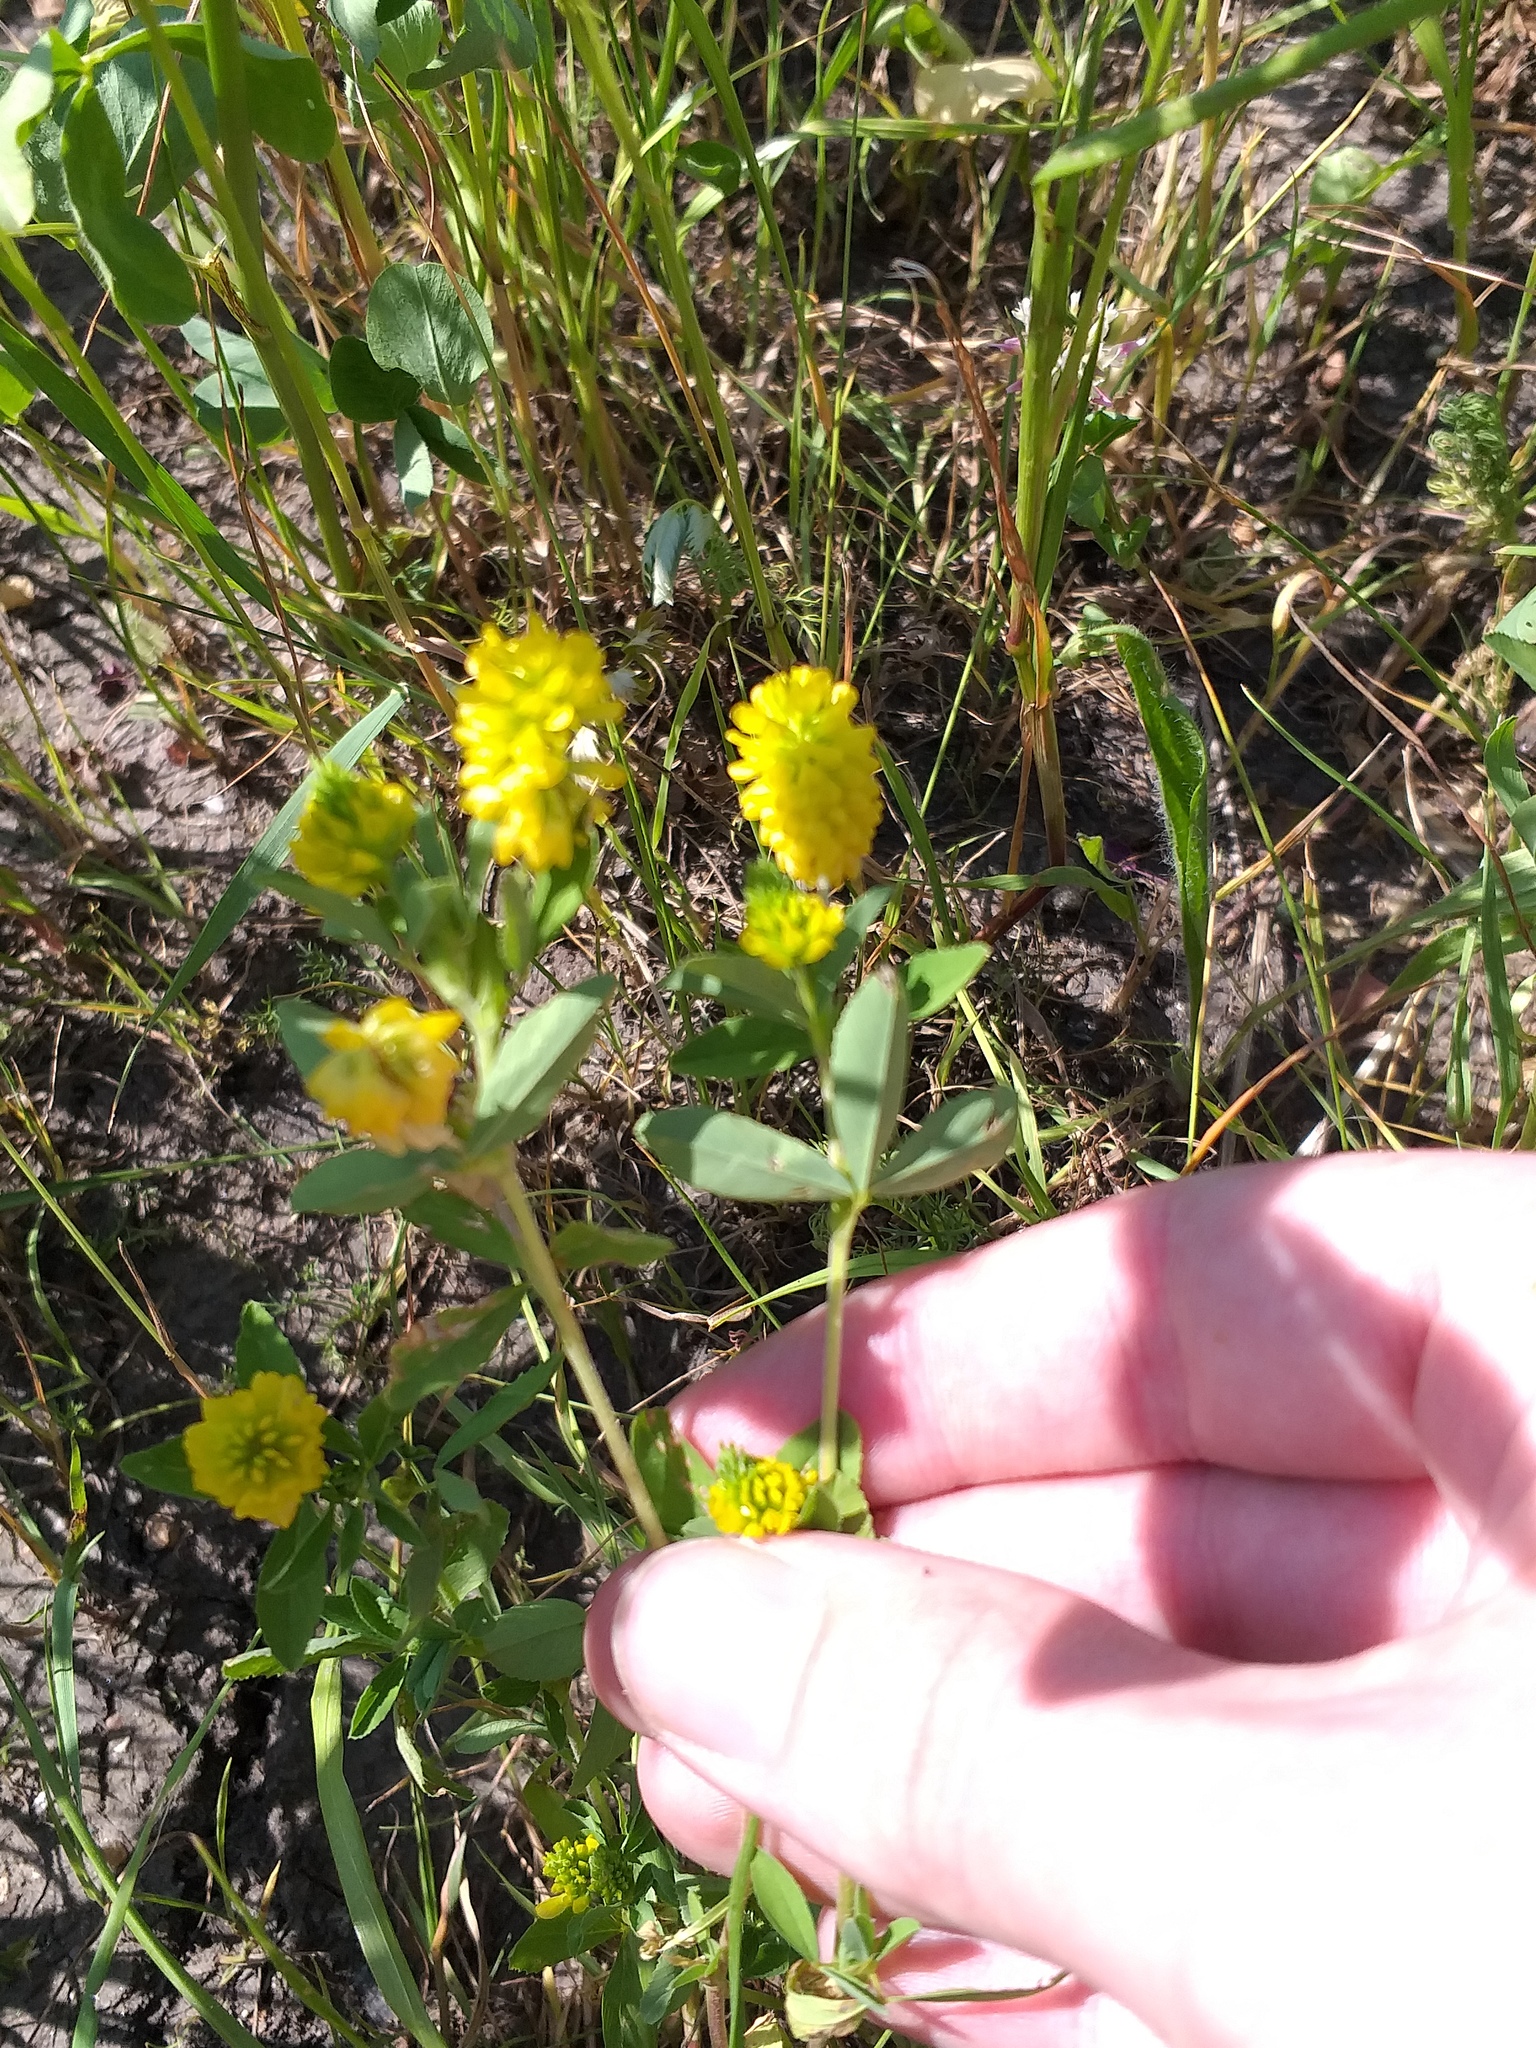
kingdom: Plantae
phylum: Tracheophyta
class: Magnoliopsida
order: Fabales
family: Fabaceae
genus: Trifolium
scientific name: Trifolium aureum
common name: Golden clover
